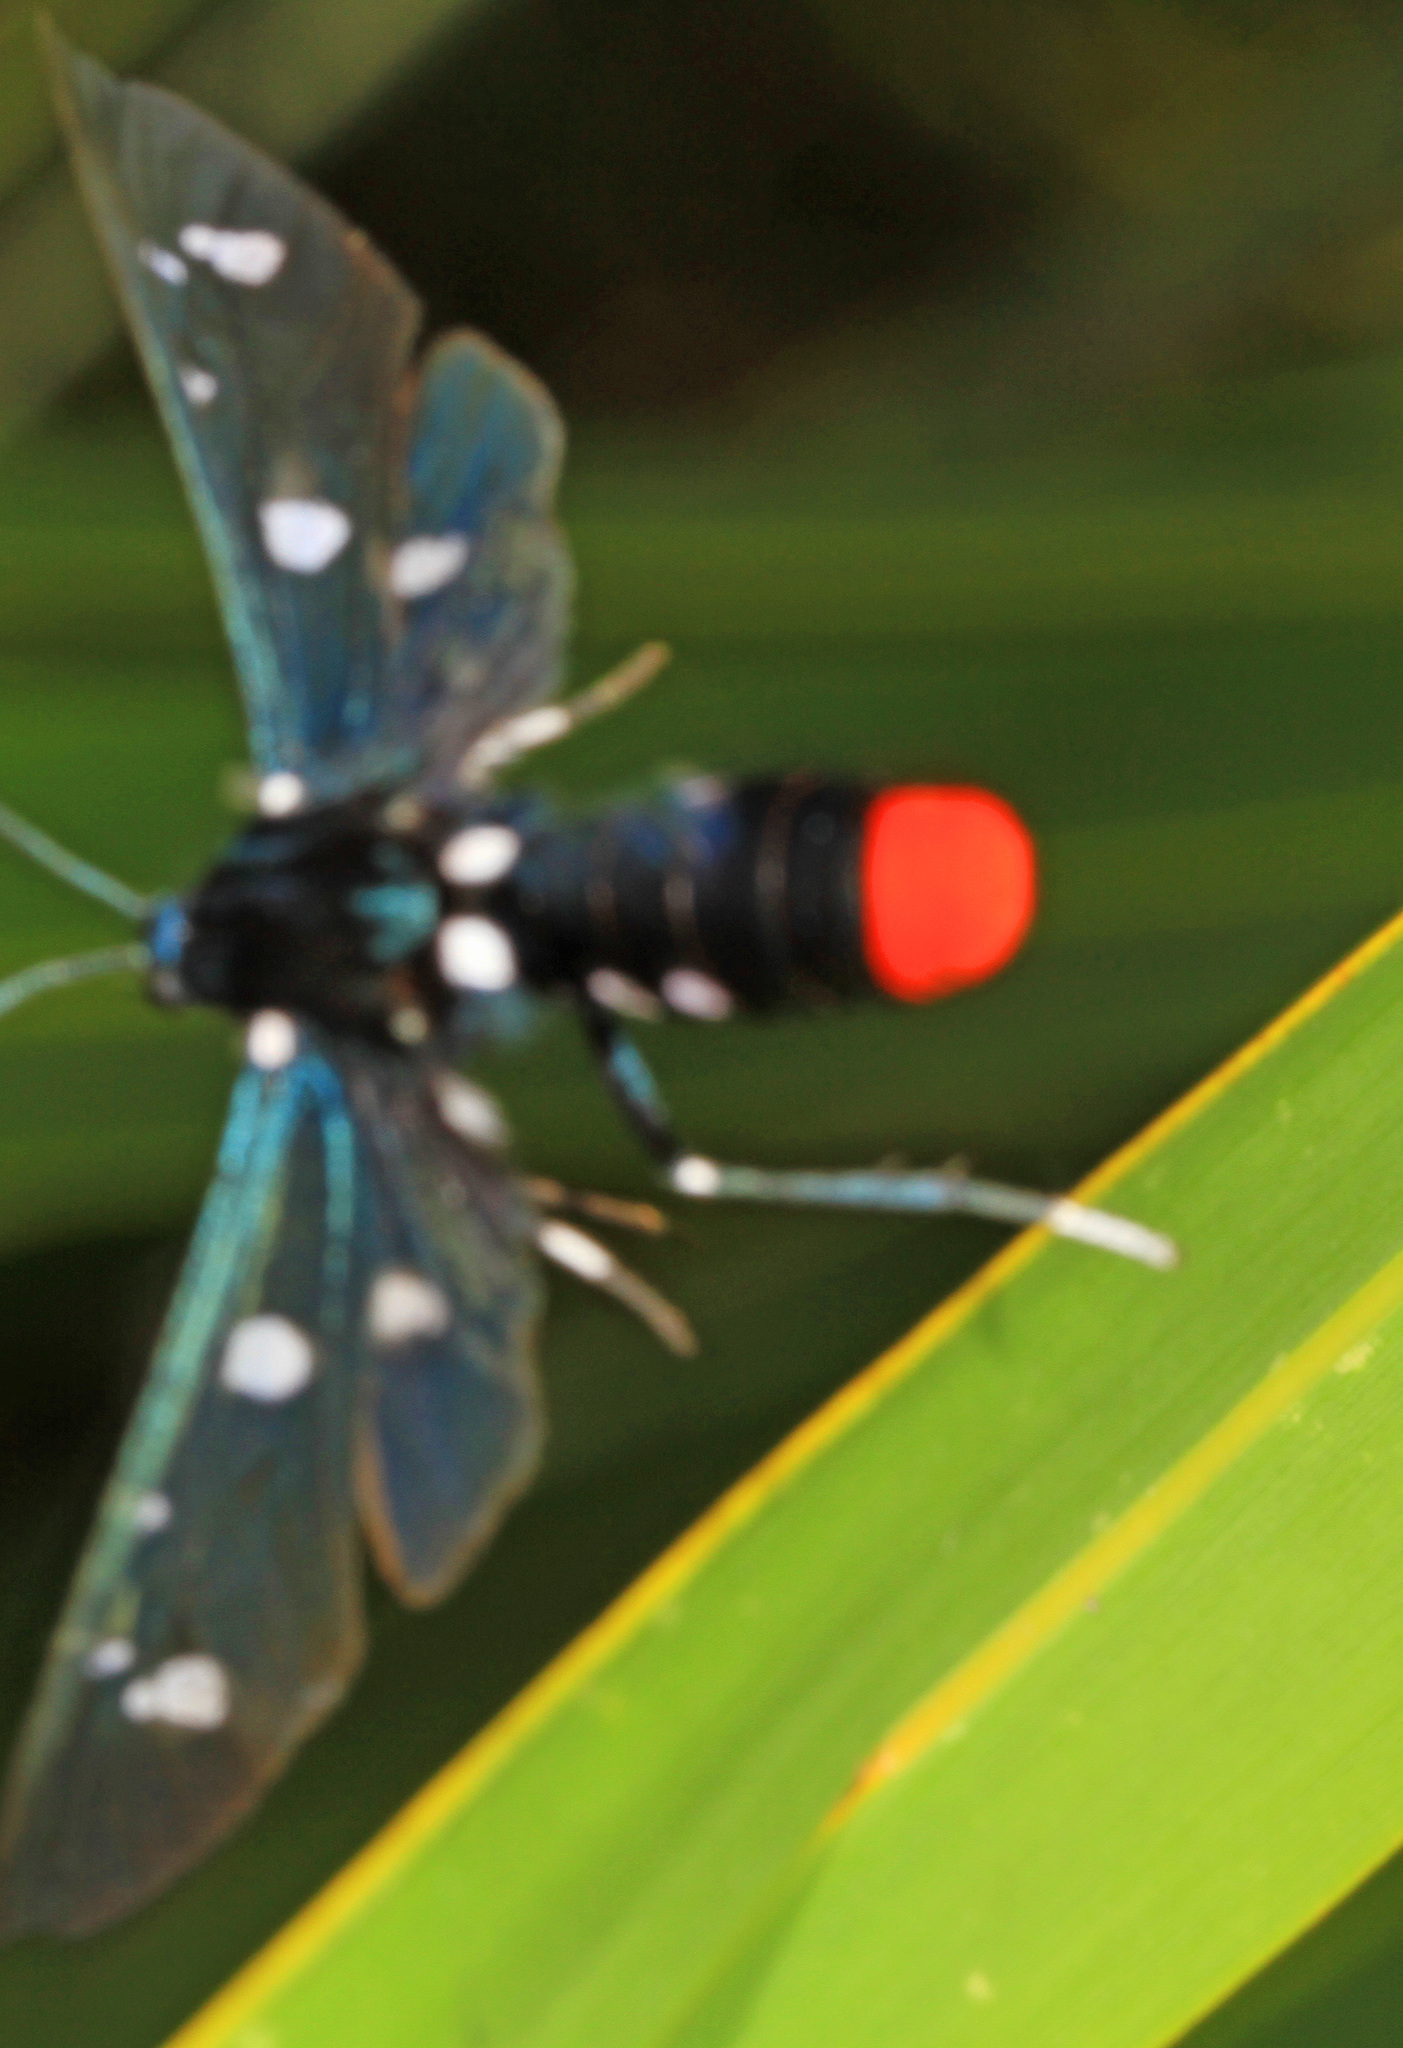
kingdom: Animalia
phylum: Arthropoda
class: Insecta
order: Lepidoptera
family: Erebidae
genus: Syntomeida
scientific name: Syntomeida epilais
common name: Polka-dot wasp moth
